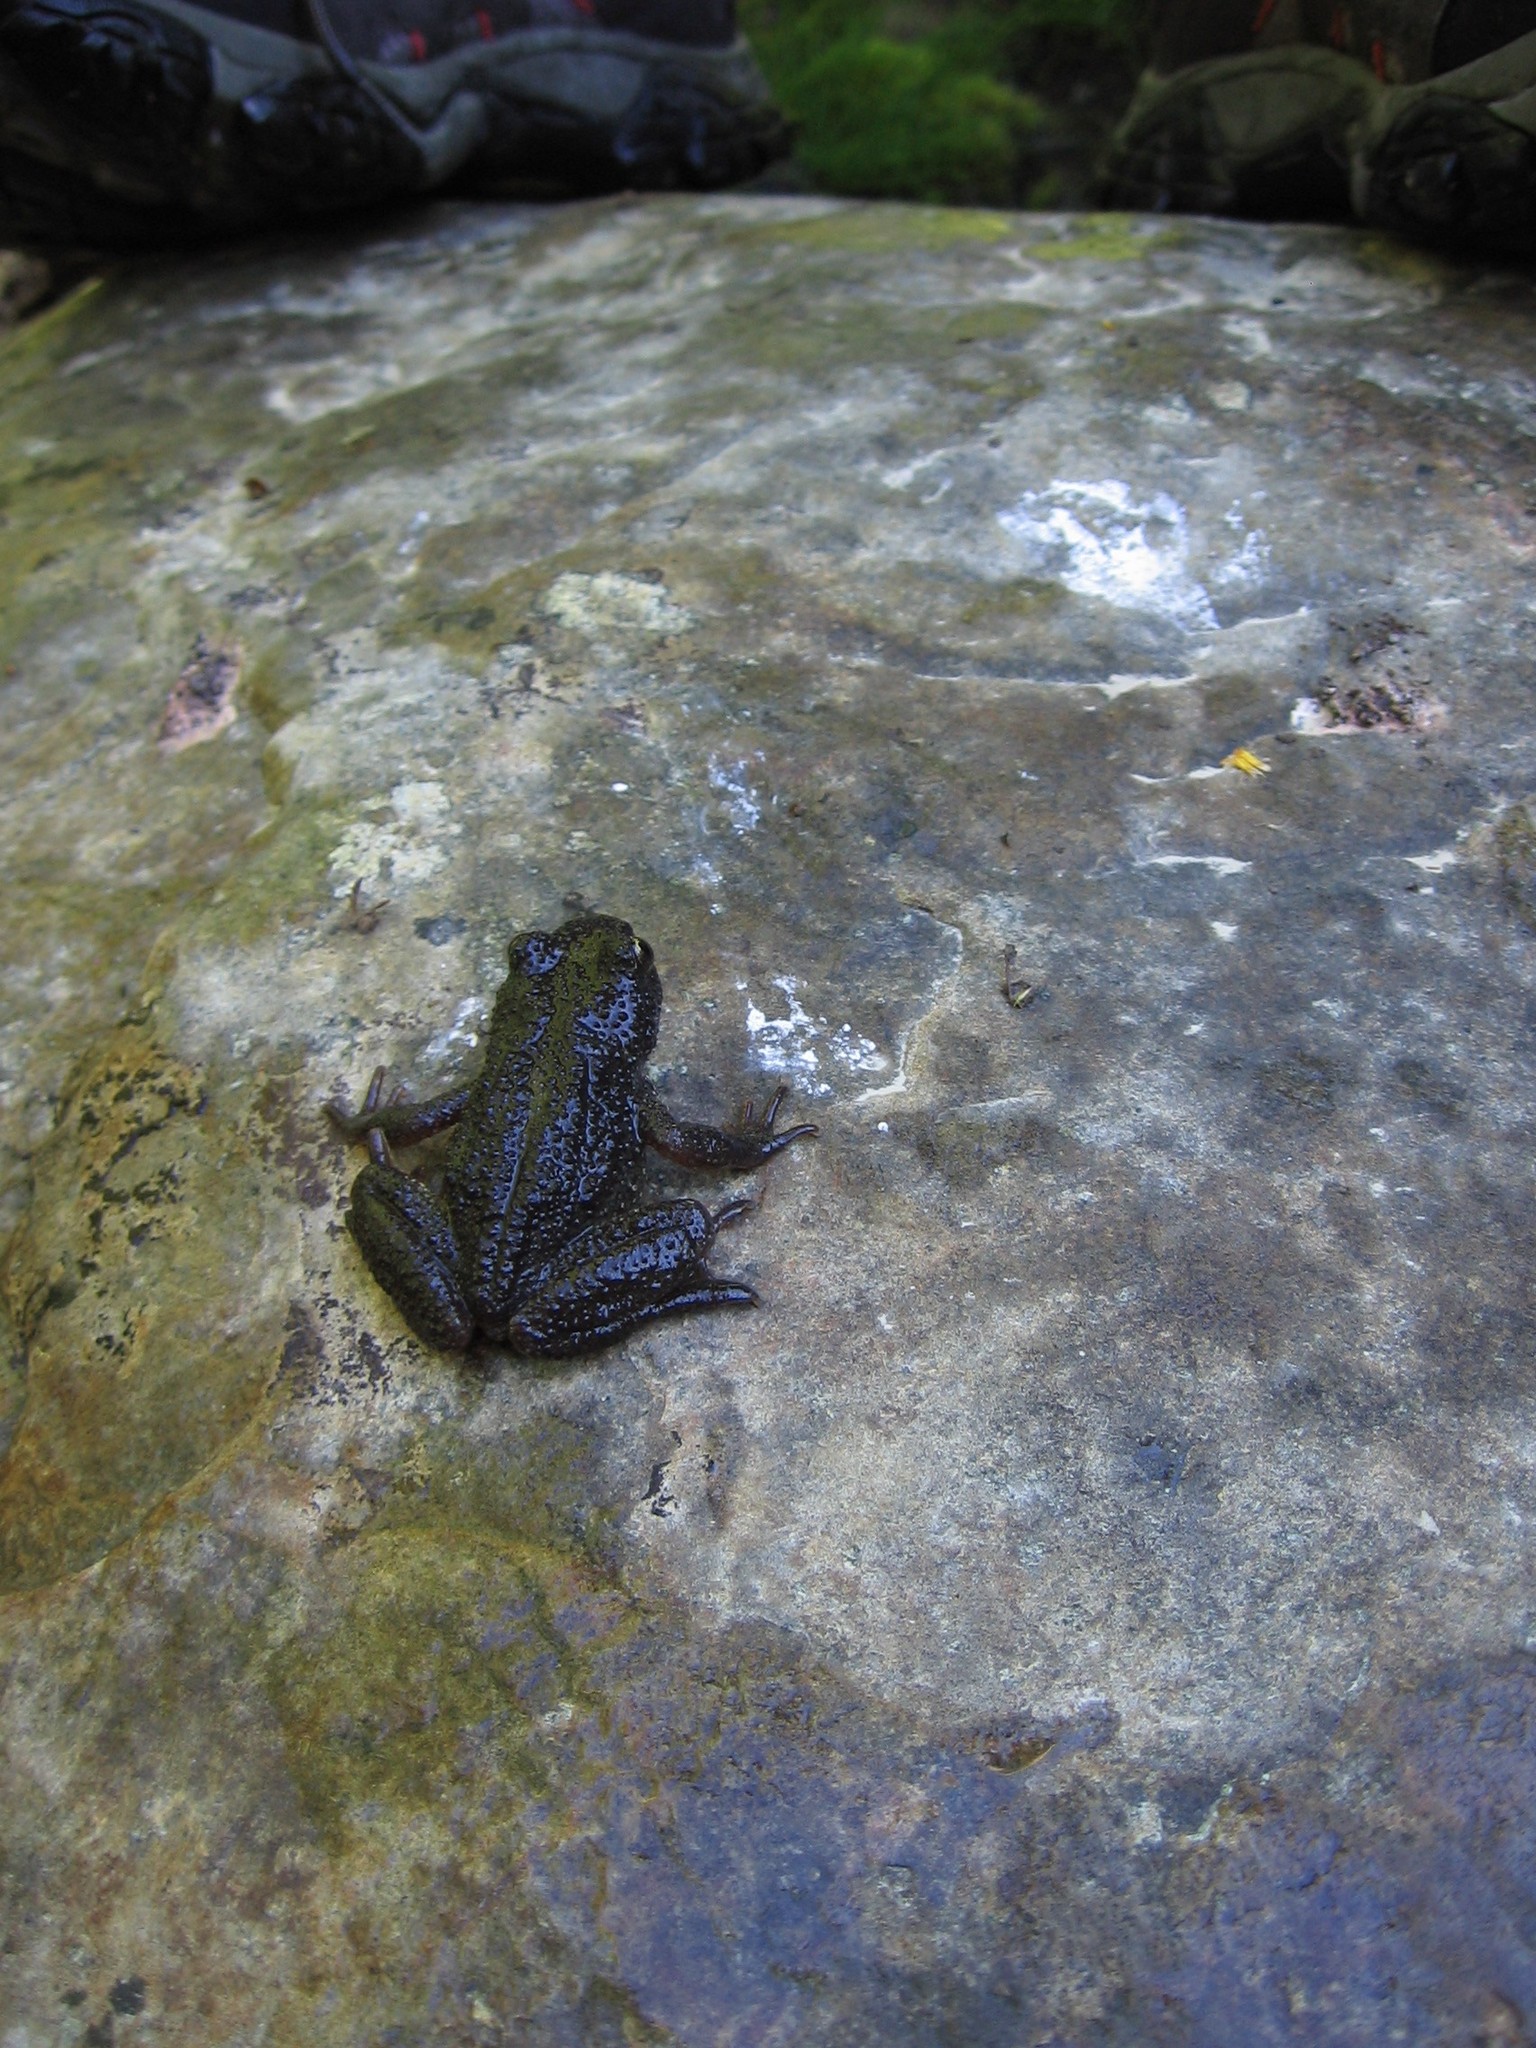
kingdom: Animalia
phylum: Chordata
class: Amphibia
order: Anura
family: Ascaphidae
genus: Ascaphus
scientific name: Ascaphus montanus
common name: Rocky mountain tailed frog
